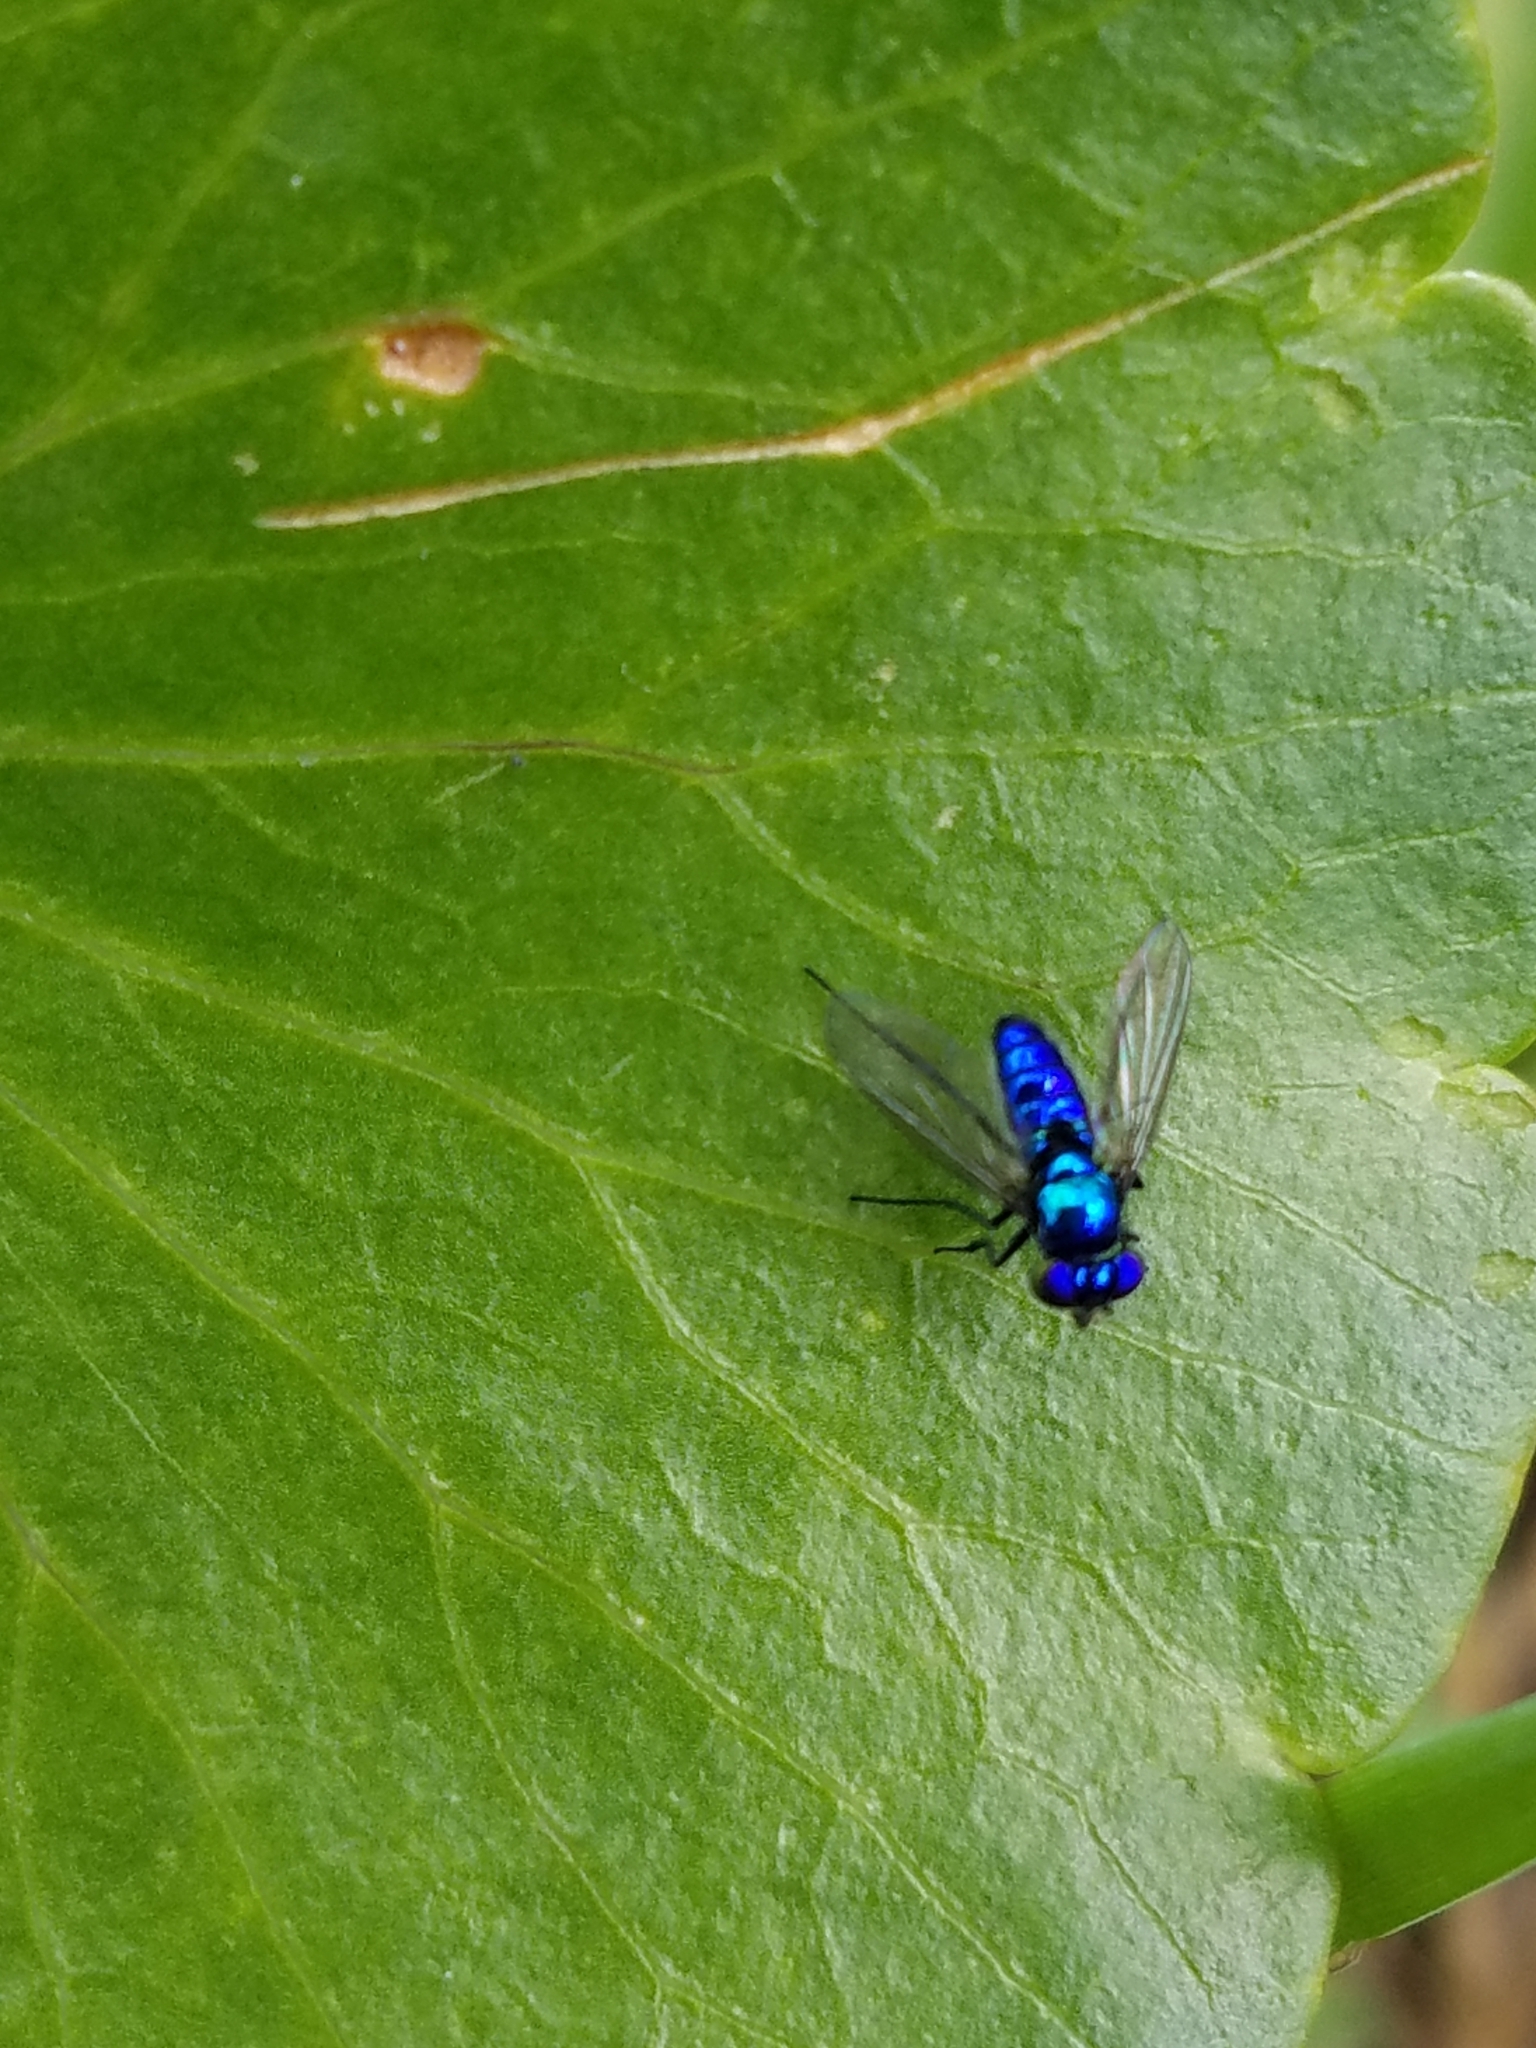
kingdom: Animalia
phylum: Arthropoda
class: Insecta
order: Diptera
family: Dolichopodidae
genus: Condylostylus
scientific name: Condylostylus mundus
